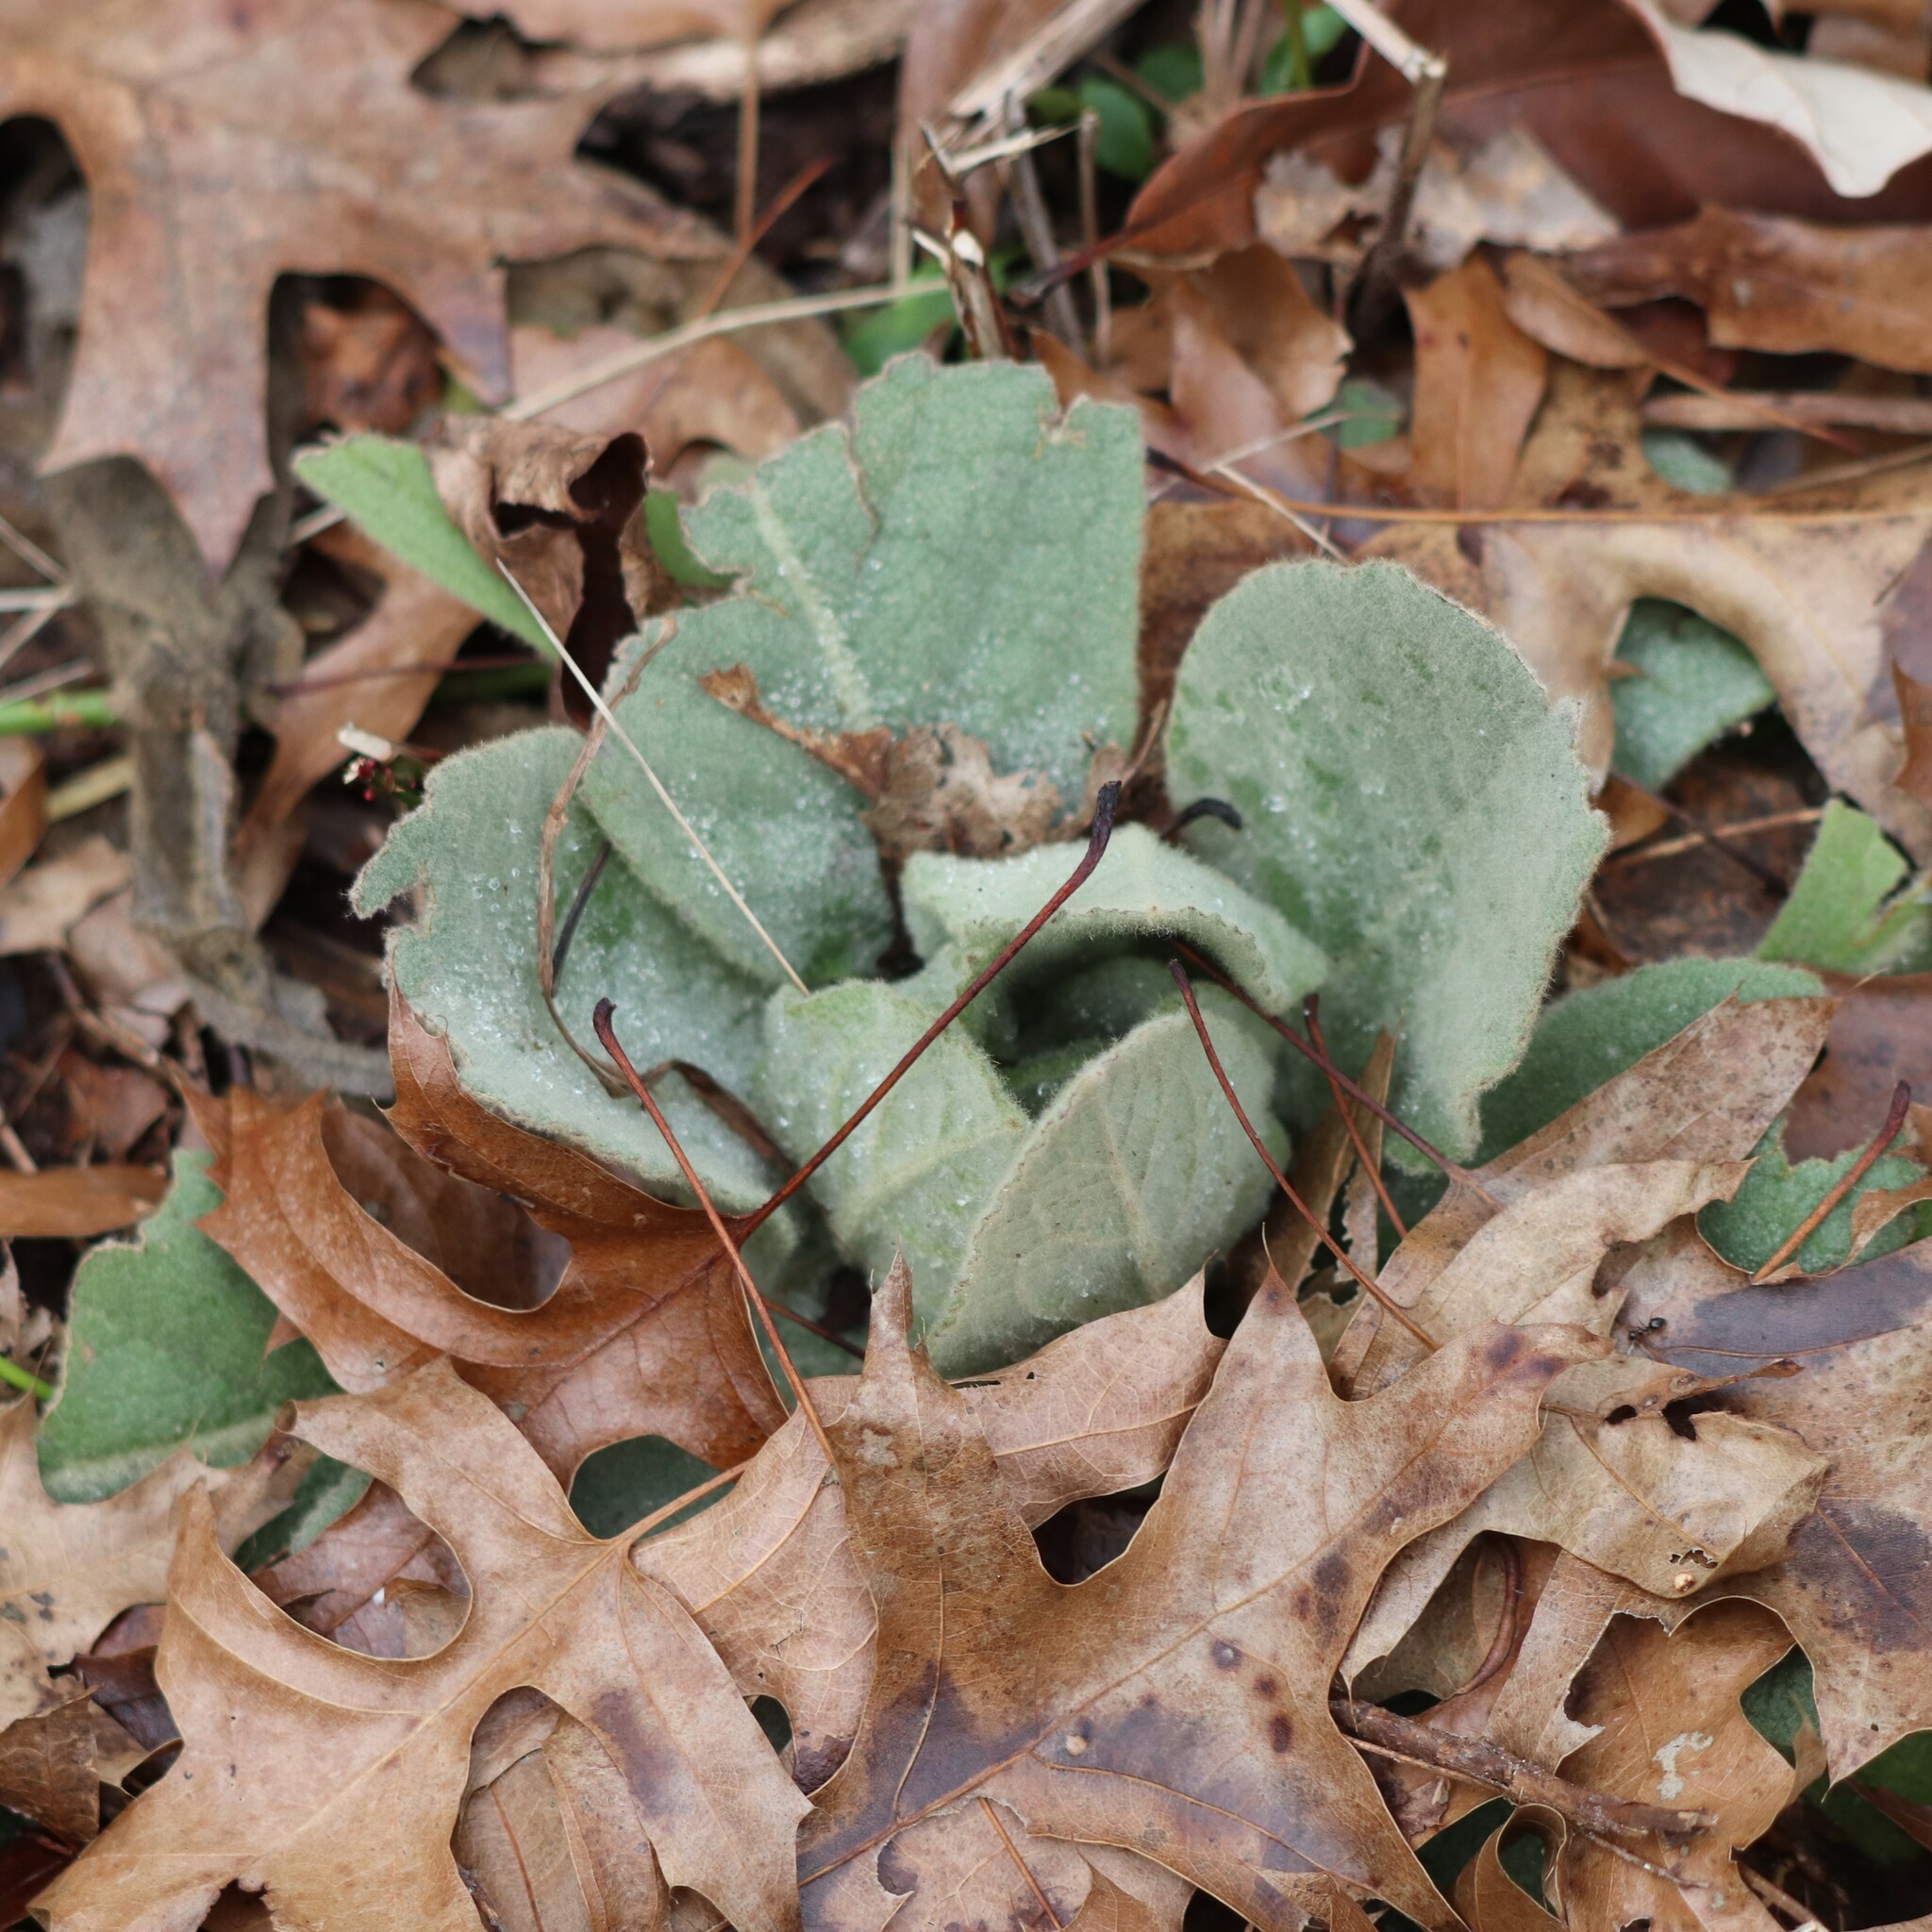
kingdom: Plantae
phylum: Tracheophyta
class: Magnoliopsida
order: Lamiales
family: Scrophulariaceae
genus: Verbascum
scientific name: Verbascum thapsus
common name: Common mullein
